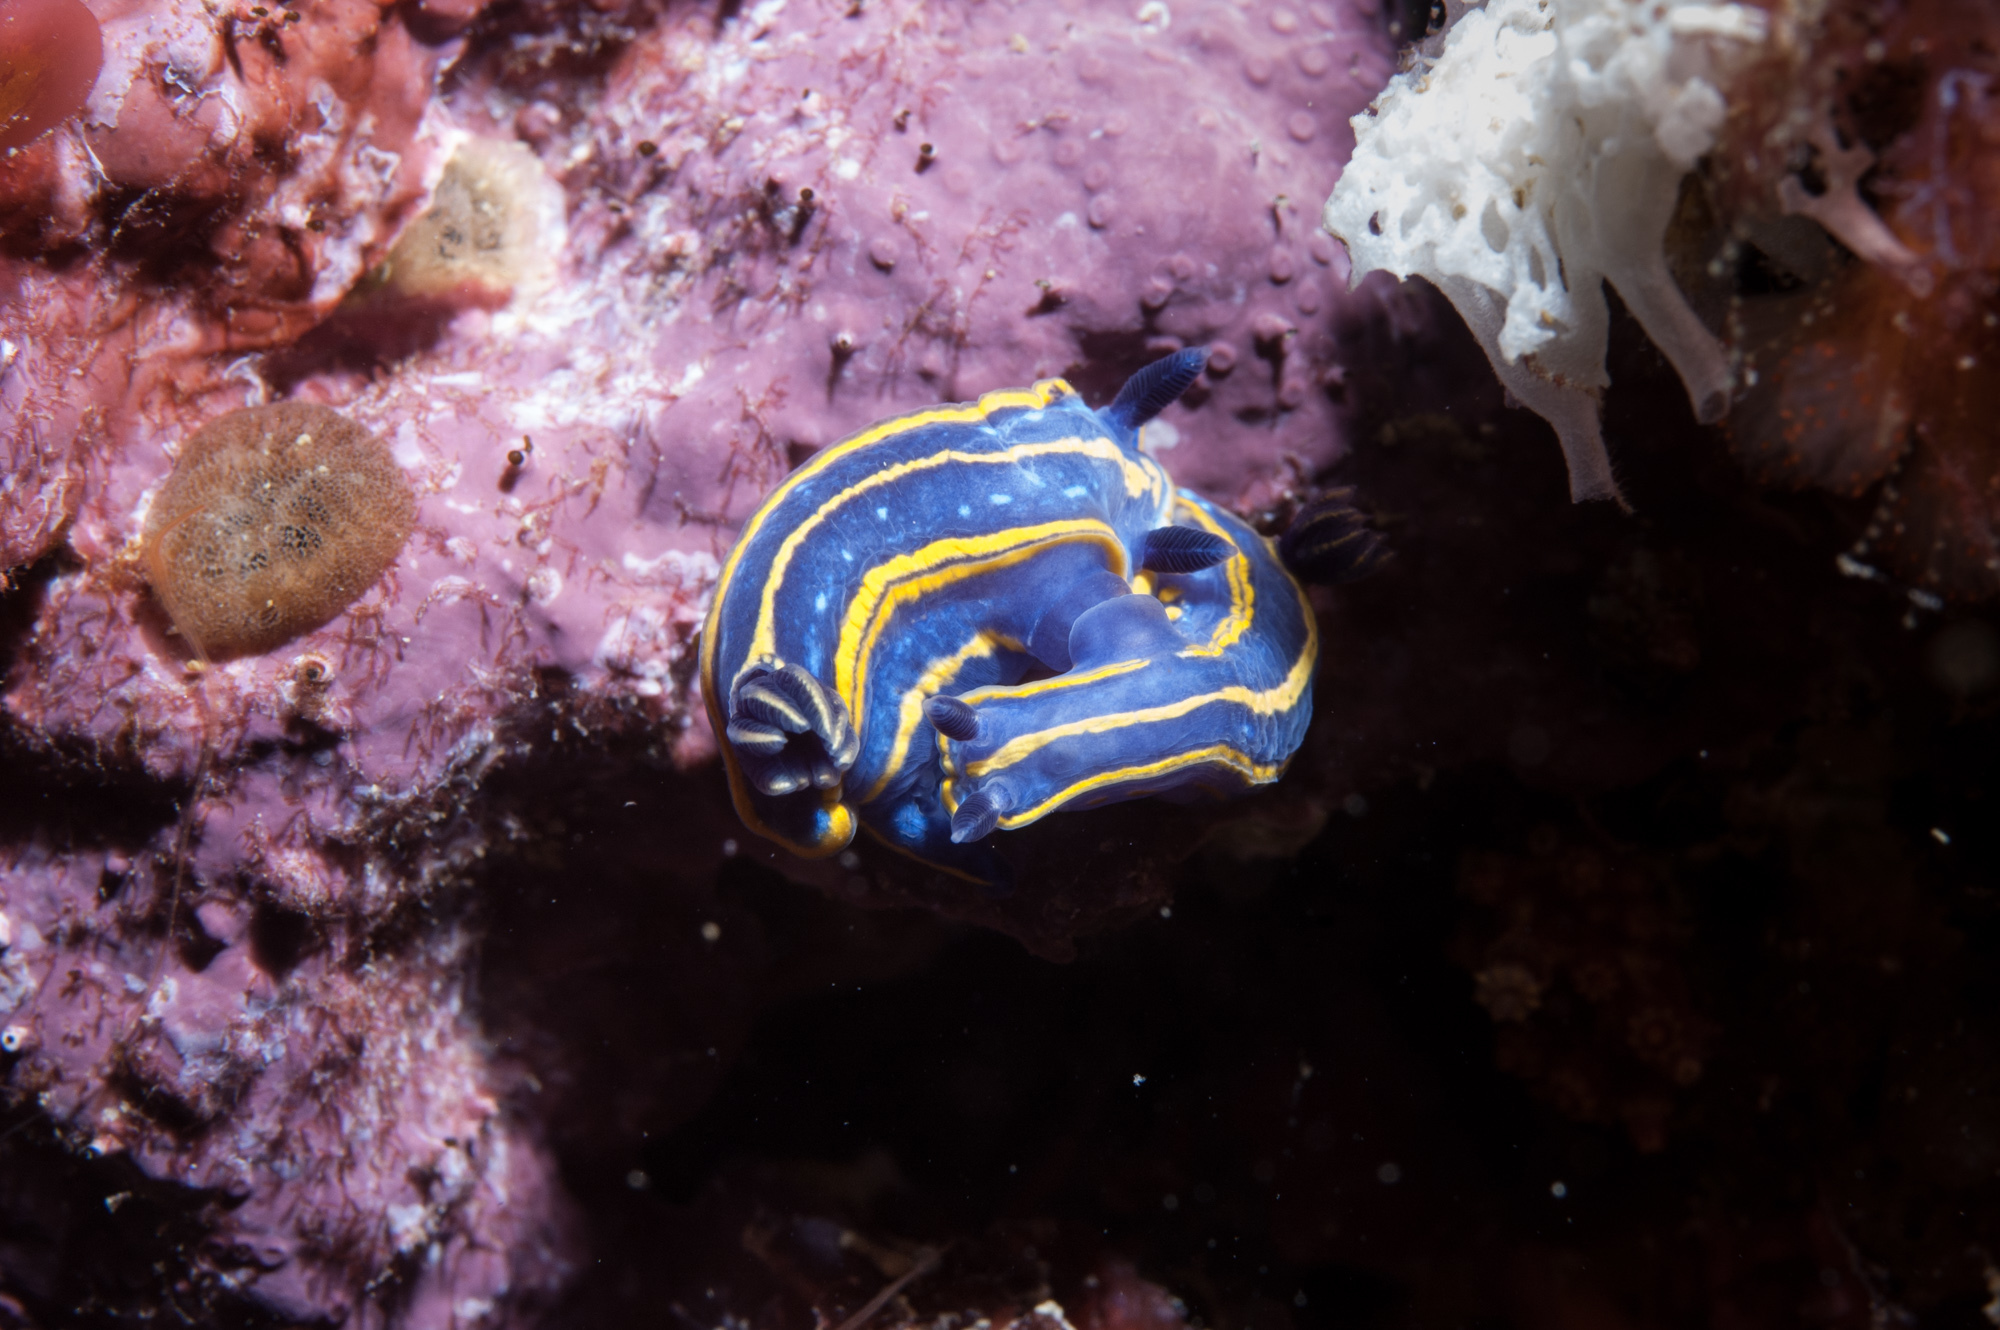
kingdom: Animalia
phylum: Mollusca
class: Gastropoda
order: Nudibranchia
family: Chromodorididae
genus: Felimare
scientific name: Felimare tricolor
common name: Tricolor doris
